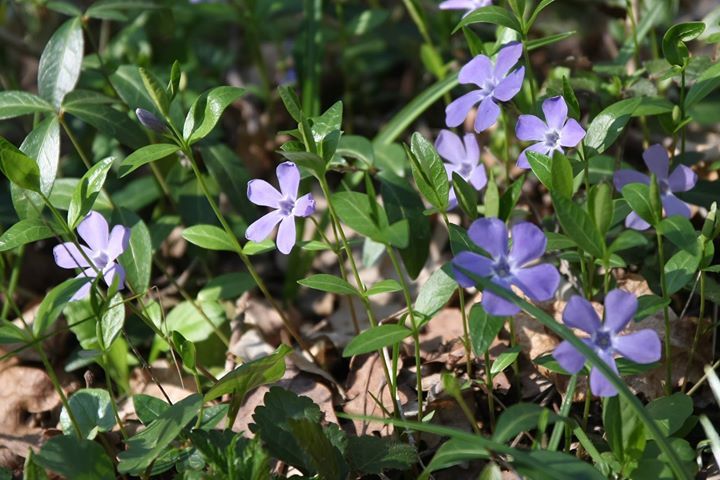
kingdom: Plantae
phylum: Tracheophyta
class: Magnoliopsida
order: Gentianales
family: Apocynaceae
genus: Vinca
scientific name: Vinca minor
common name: Lesser periwinkle
